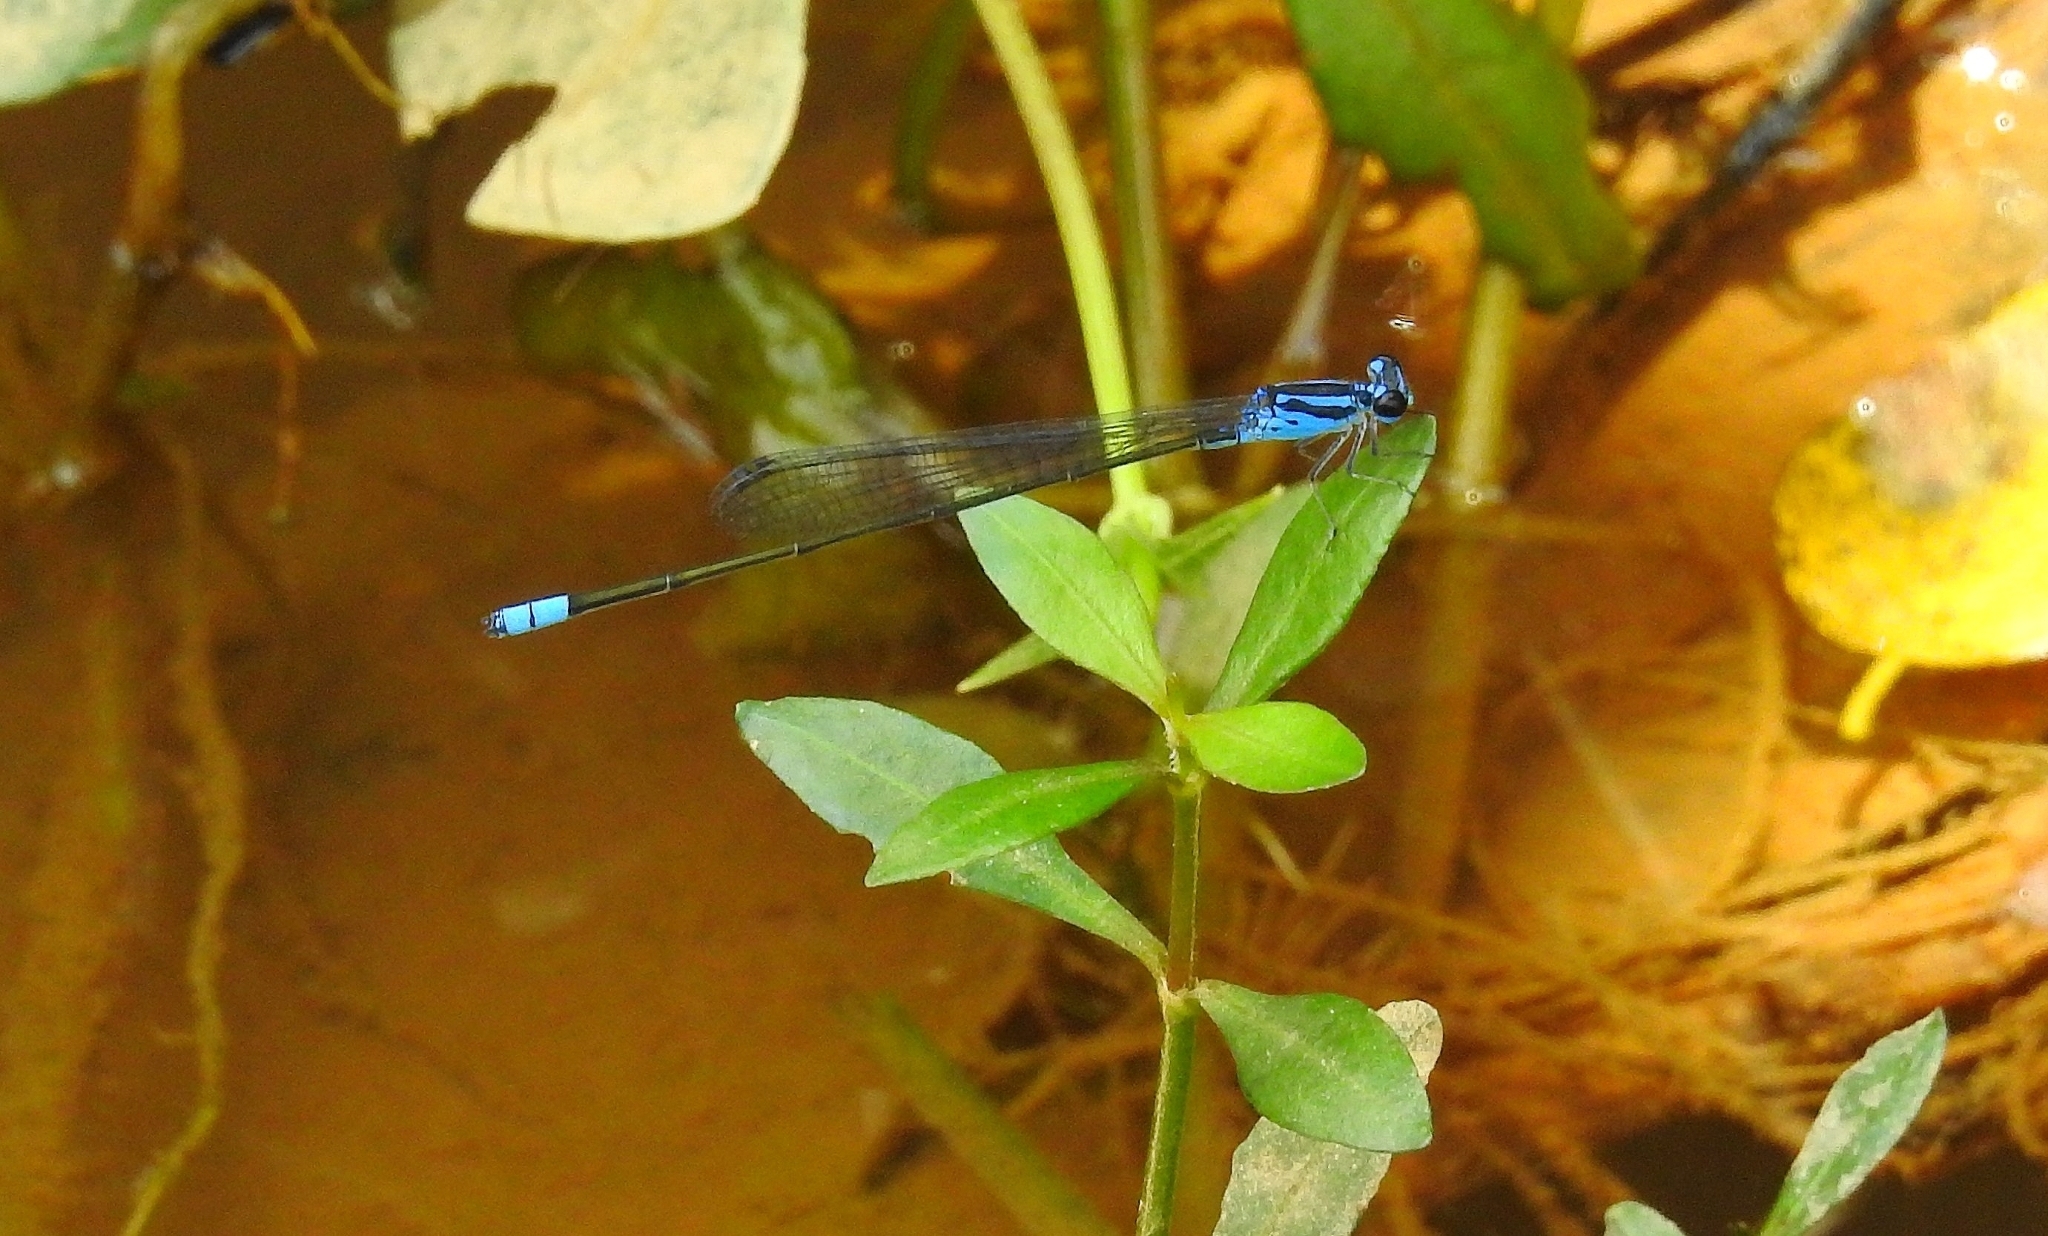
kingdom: Animalia
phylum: Arthropoda
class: Insecta
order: Odonata
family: Coenagrionidae
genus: Archibasis
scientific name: Archibasis oscillans
